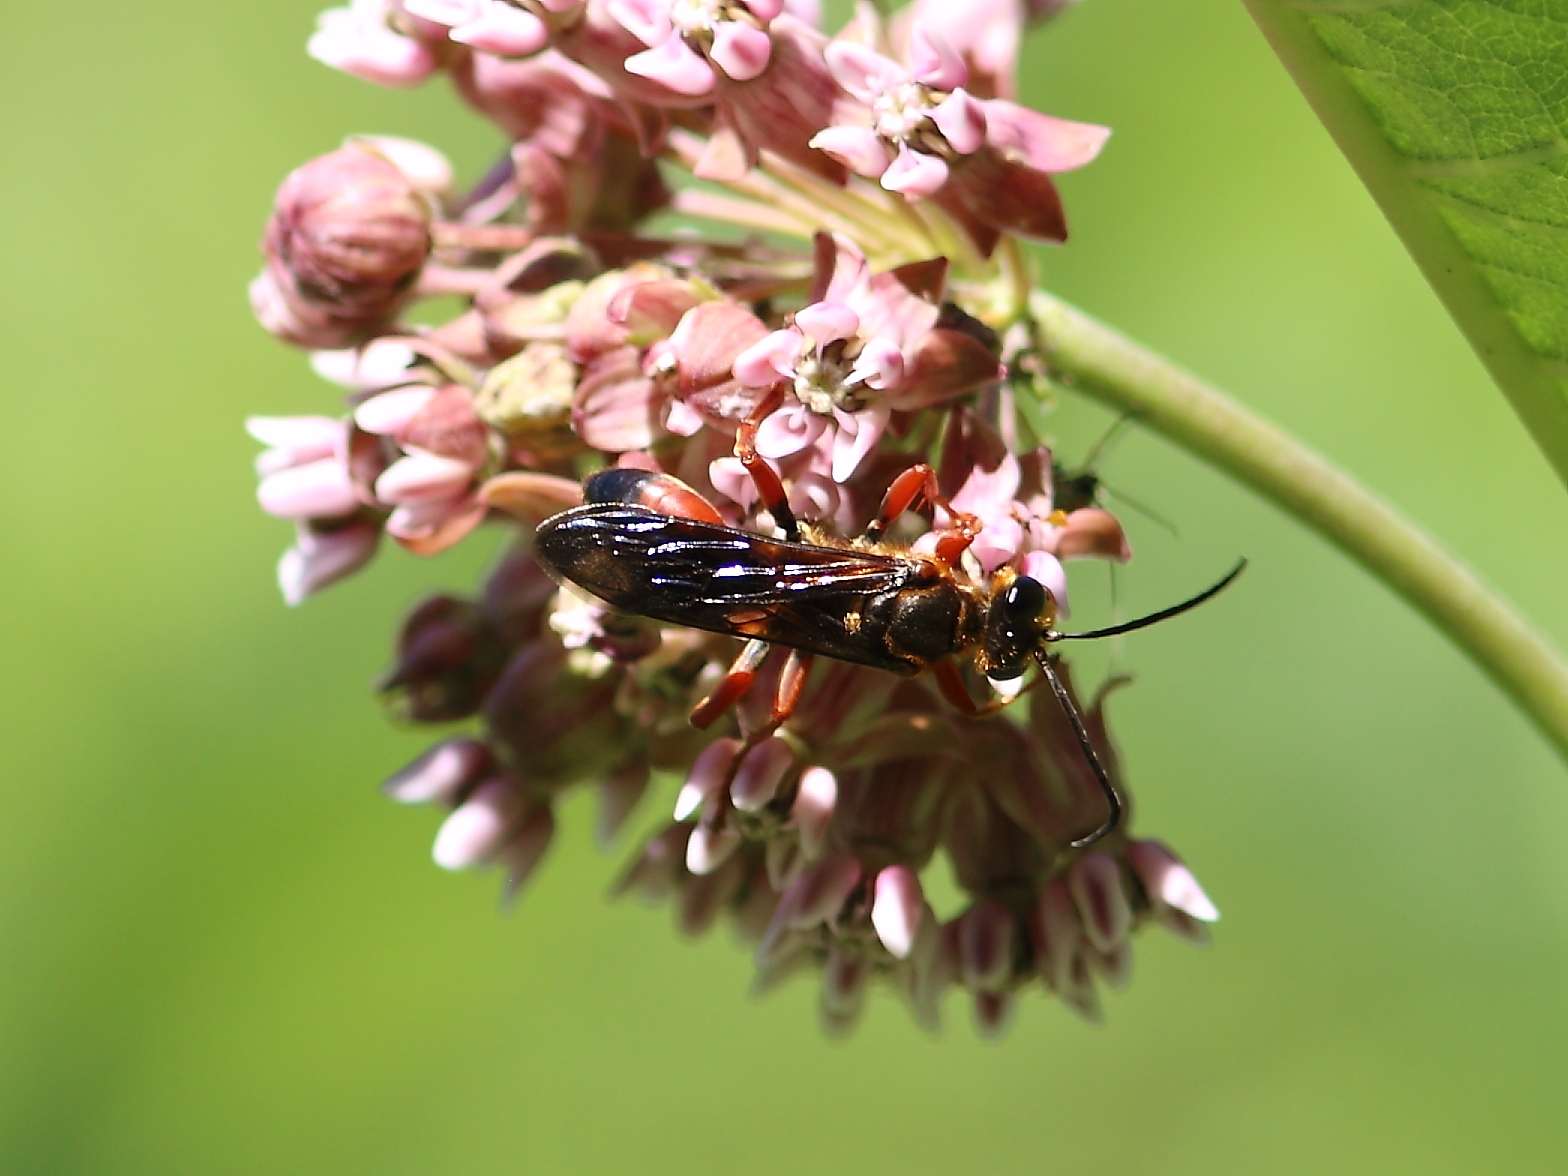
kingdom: Animalia
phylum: Arthropoda
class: Insecta
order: Hymenoptera
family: Sphecidae
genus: Sphex
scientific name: Sphex ichneumoneus
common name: Great golden digger wasp
